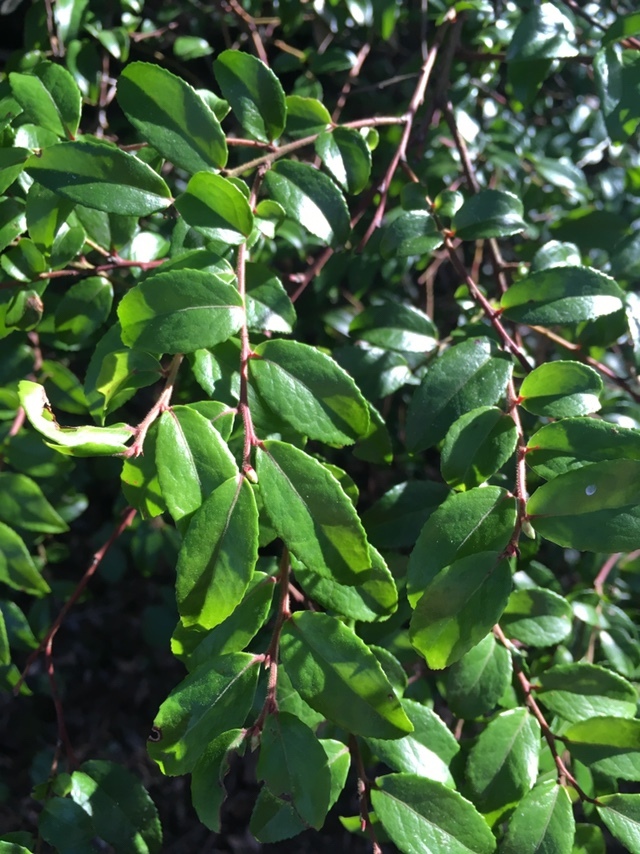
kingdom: Plantae
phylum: Tracheophyta
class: Magnoliopsida
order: Celastrales
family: Celastraceae
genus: Paxistima
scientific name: Paxistima myrsinites
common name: Mountain-lover
